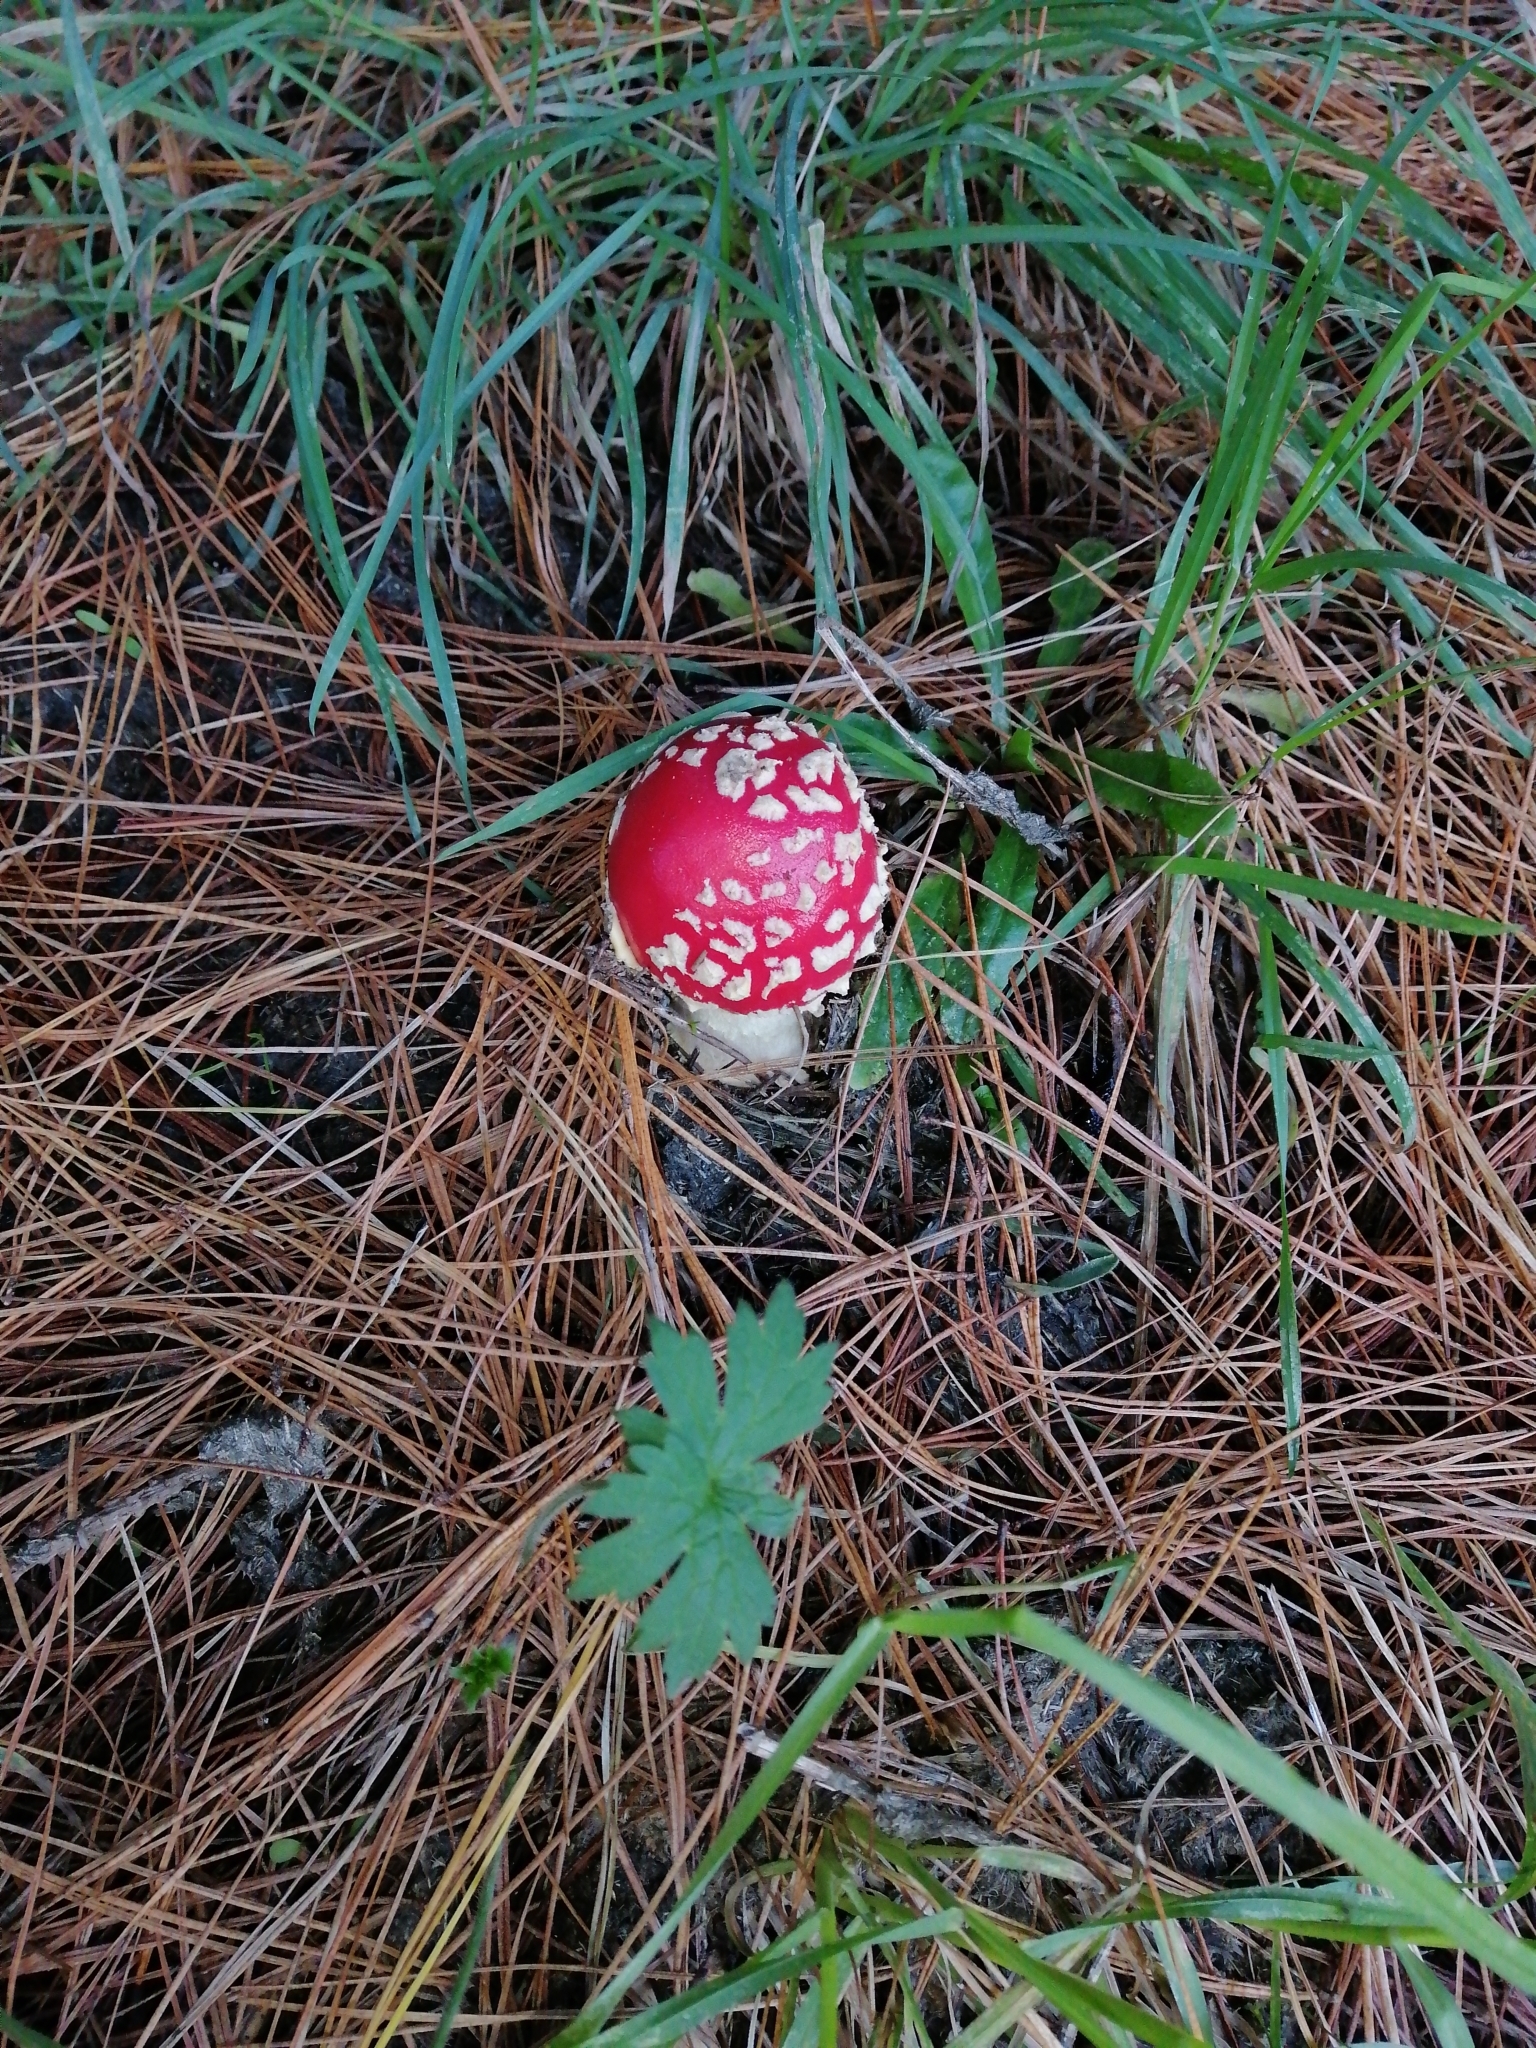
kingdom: Fungi
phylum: Basidiomycota
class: Agaricomycetes
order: Agaricales
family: Amanitaceae
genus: Amanita
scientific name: Amanita muscaria
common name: Fly agaric
